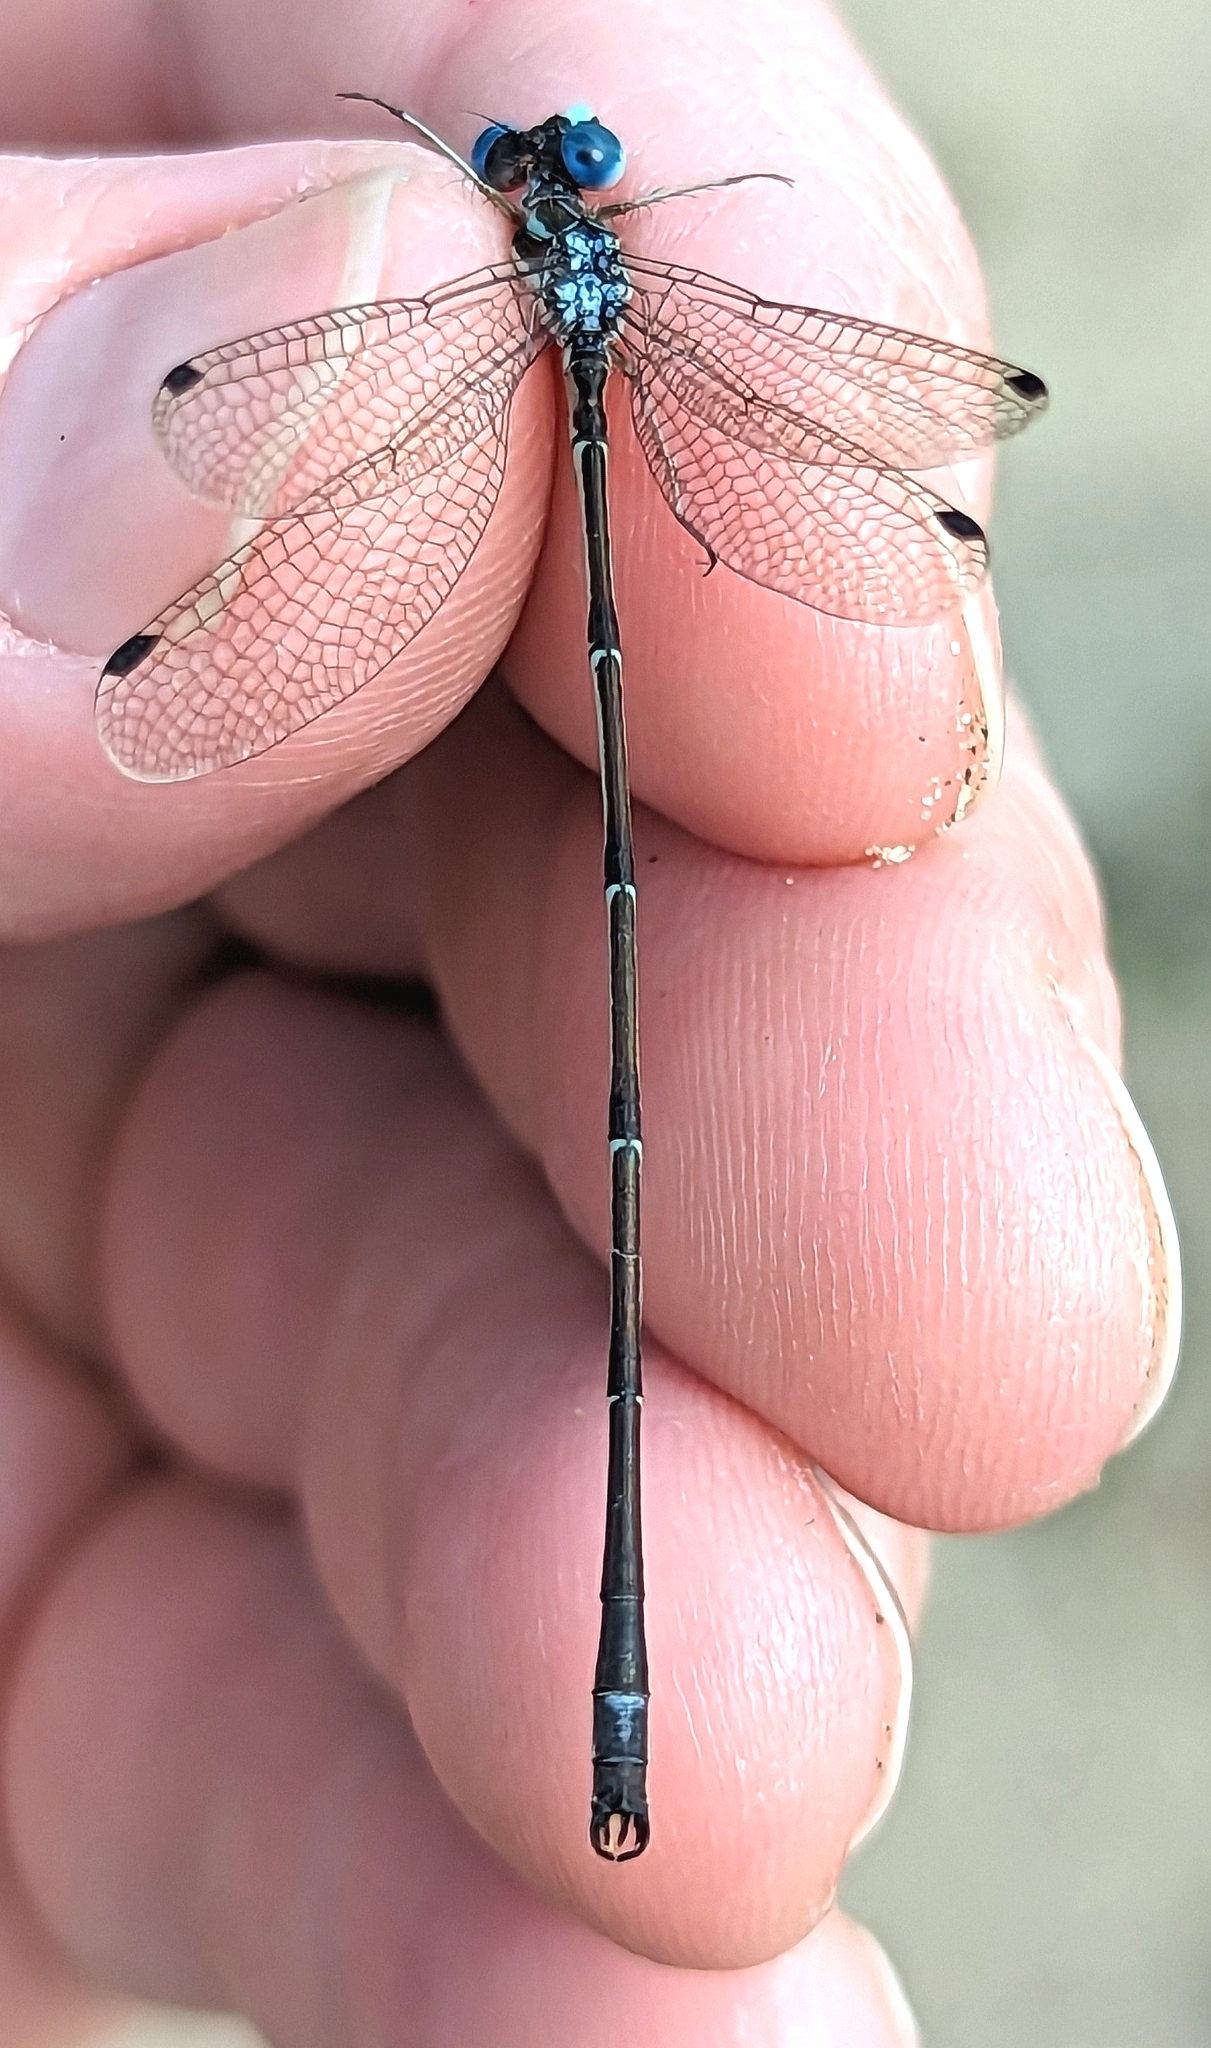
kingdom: Animalia
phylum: Arthropoda
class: Insecta
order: Odonata
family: Lestidae
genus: Lestes
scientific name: Lestes rectangularis
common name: Slender spreadwing
